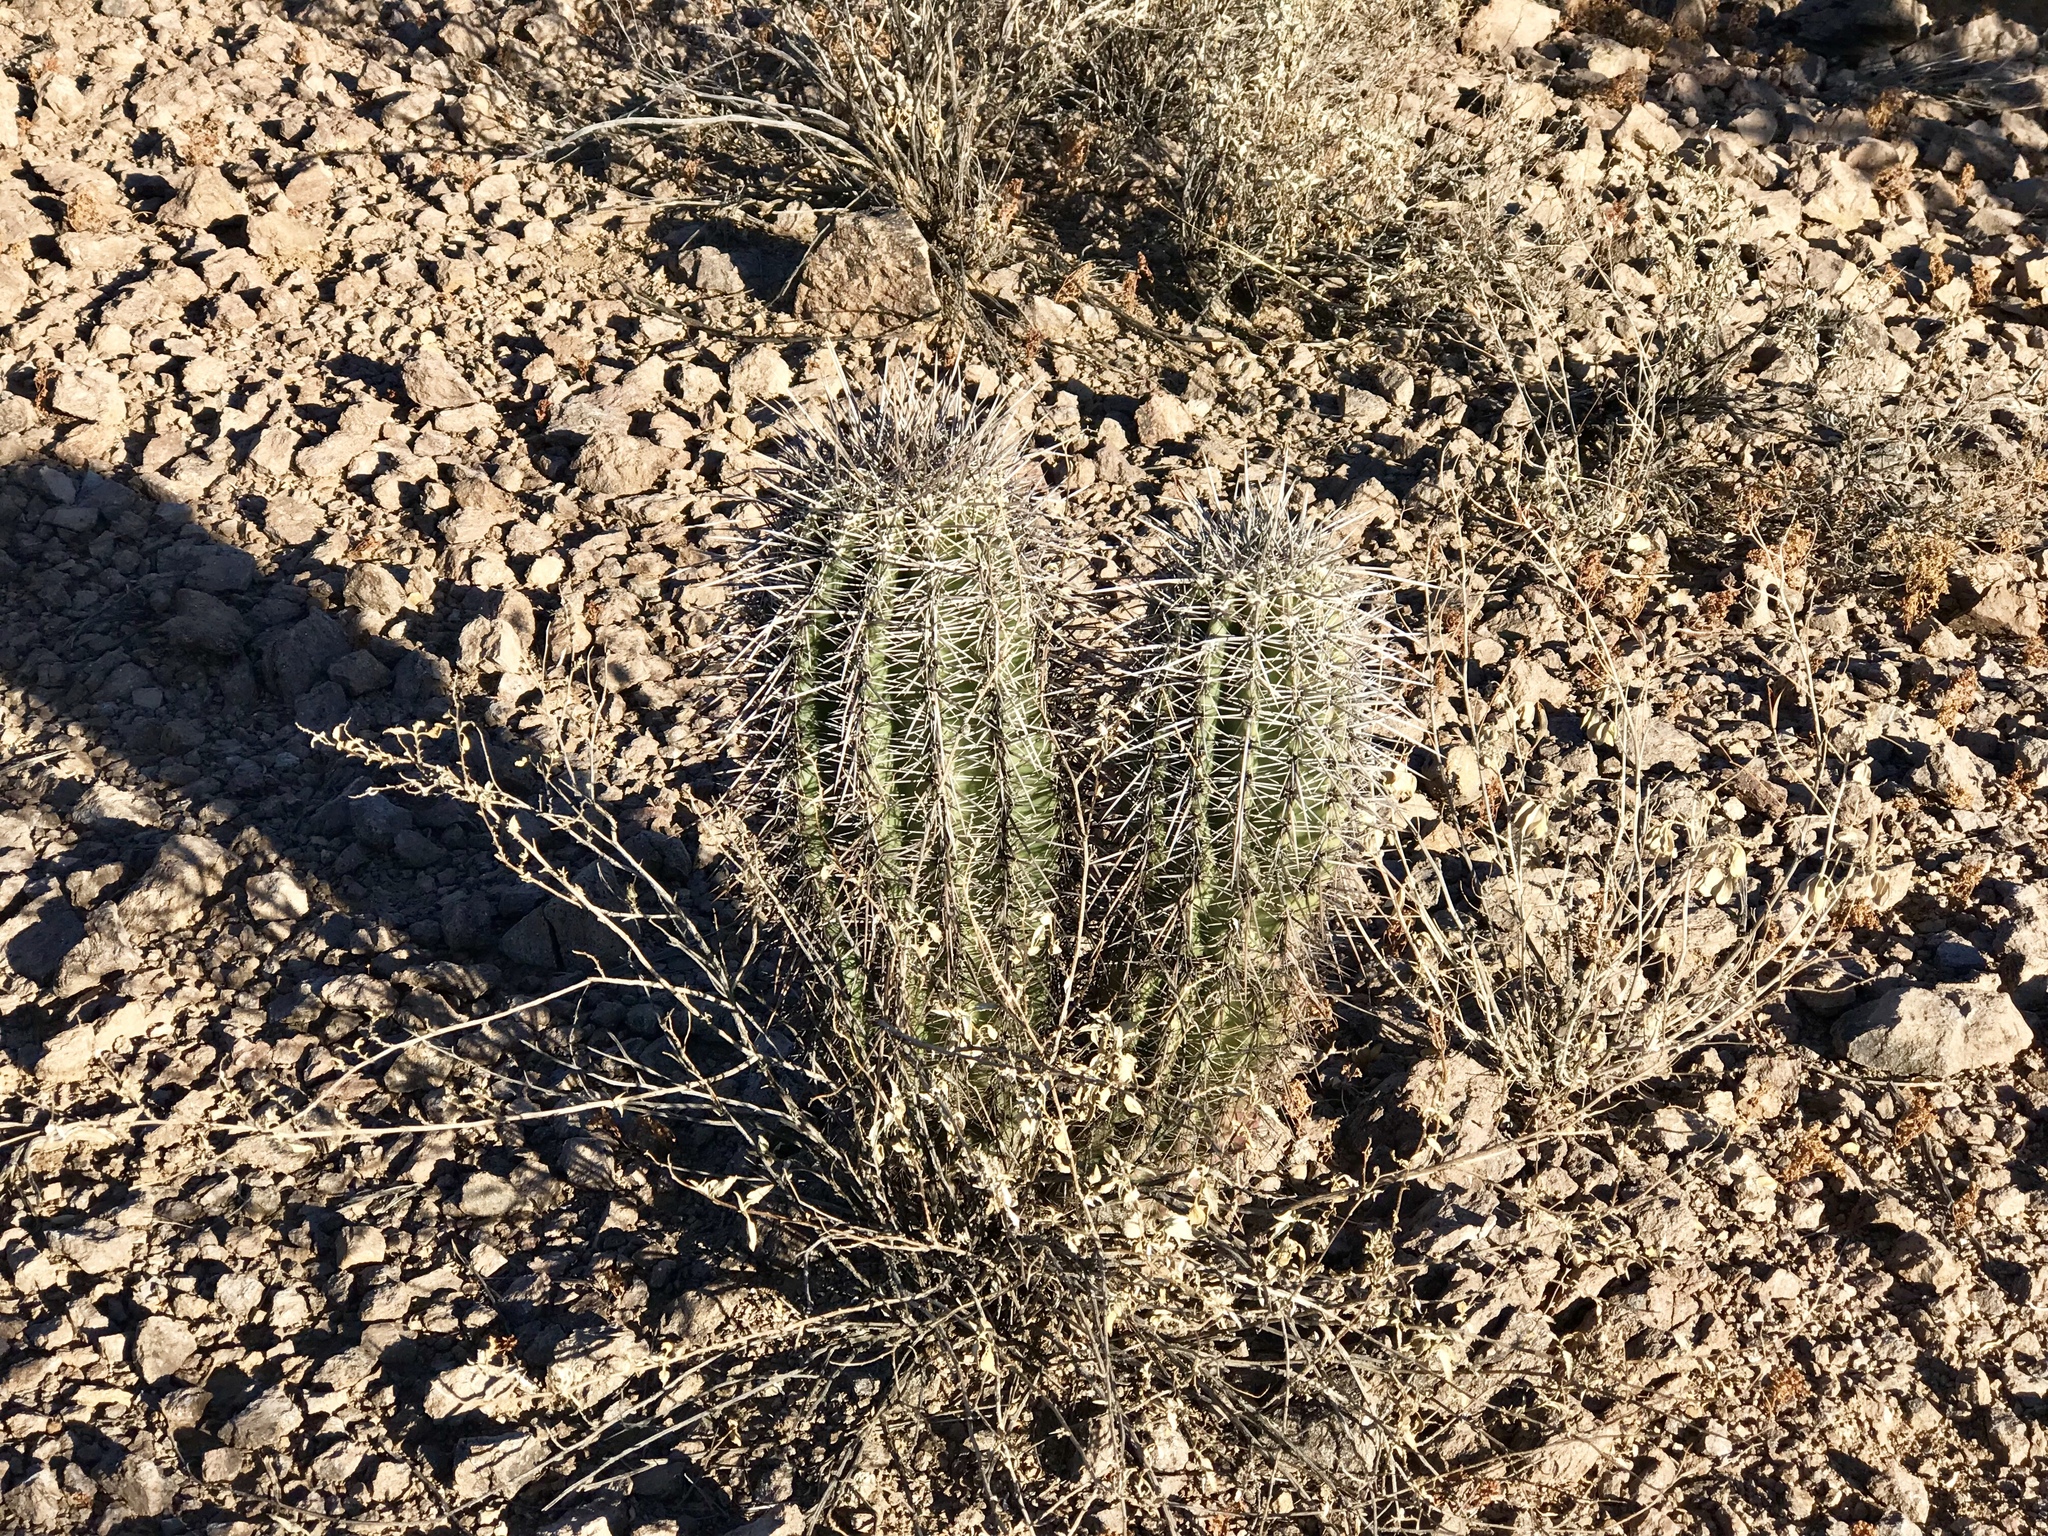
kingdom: Plantae
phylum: Tracheophyta
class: Magnoliopsida
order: Caryophyllales
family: Cactaceae
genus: Carnegiea
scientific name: Carnegiea gigantea
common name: Saguaro
